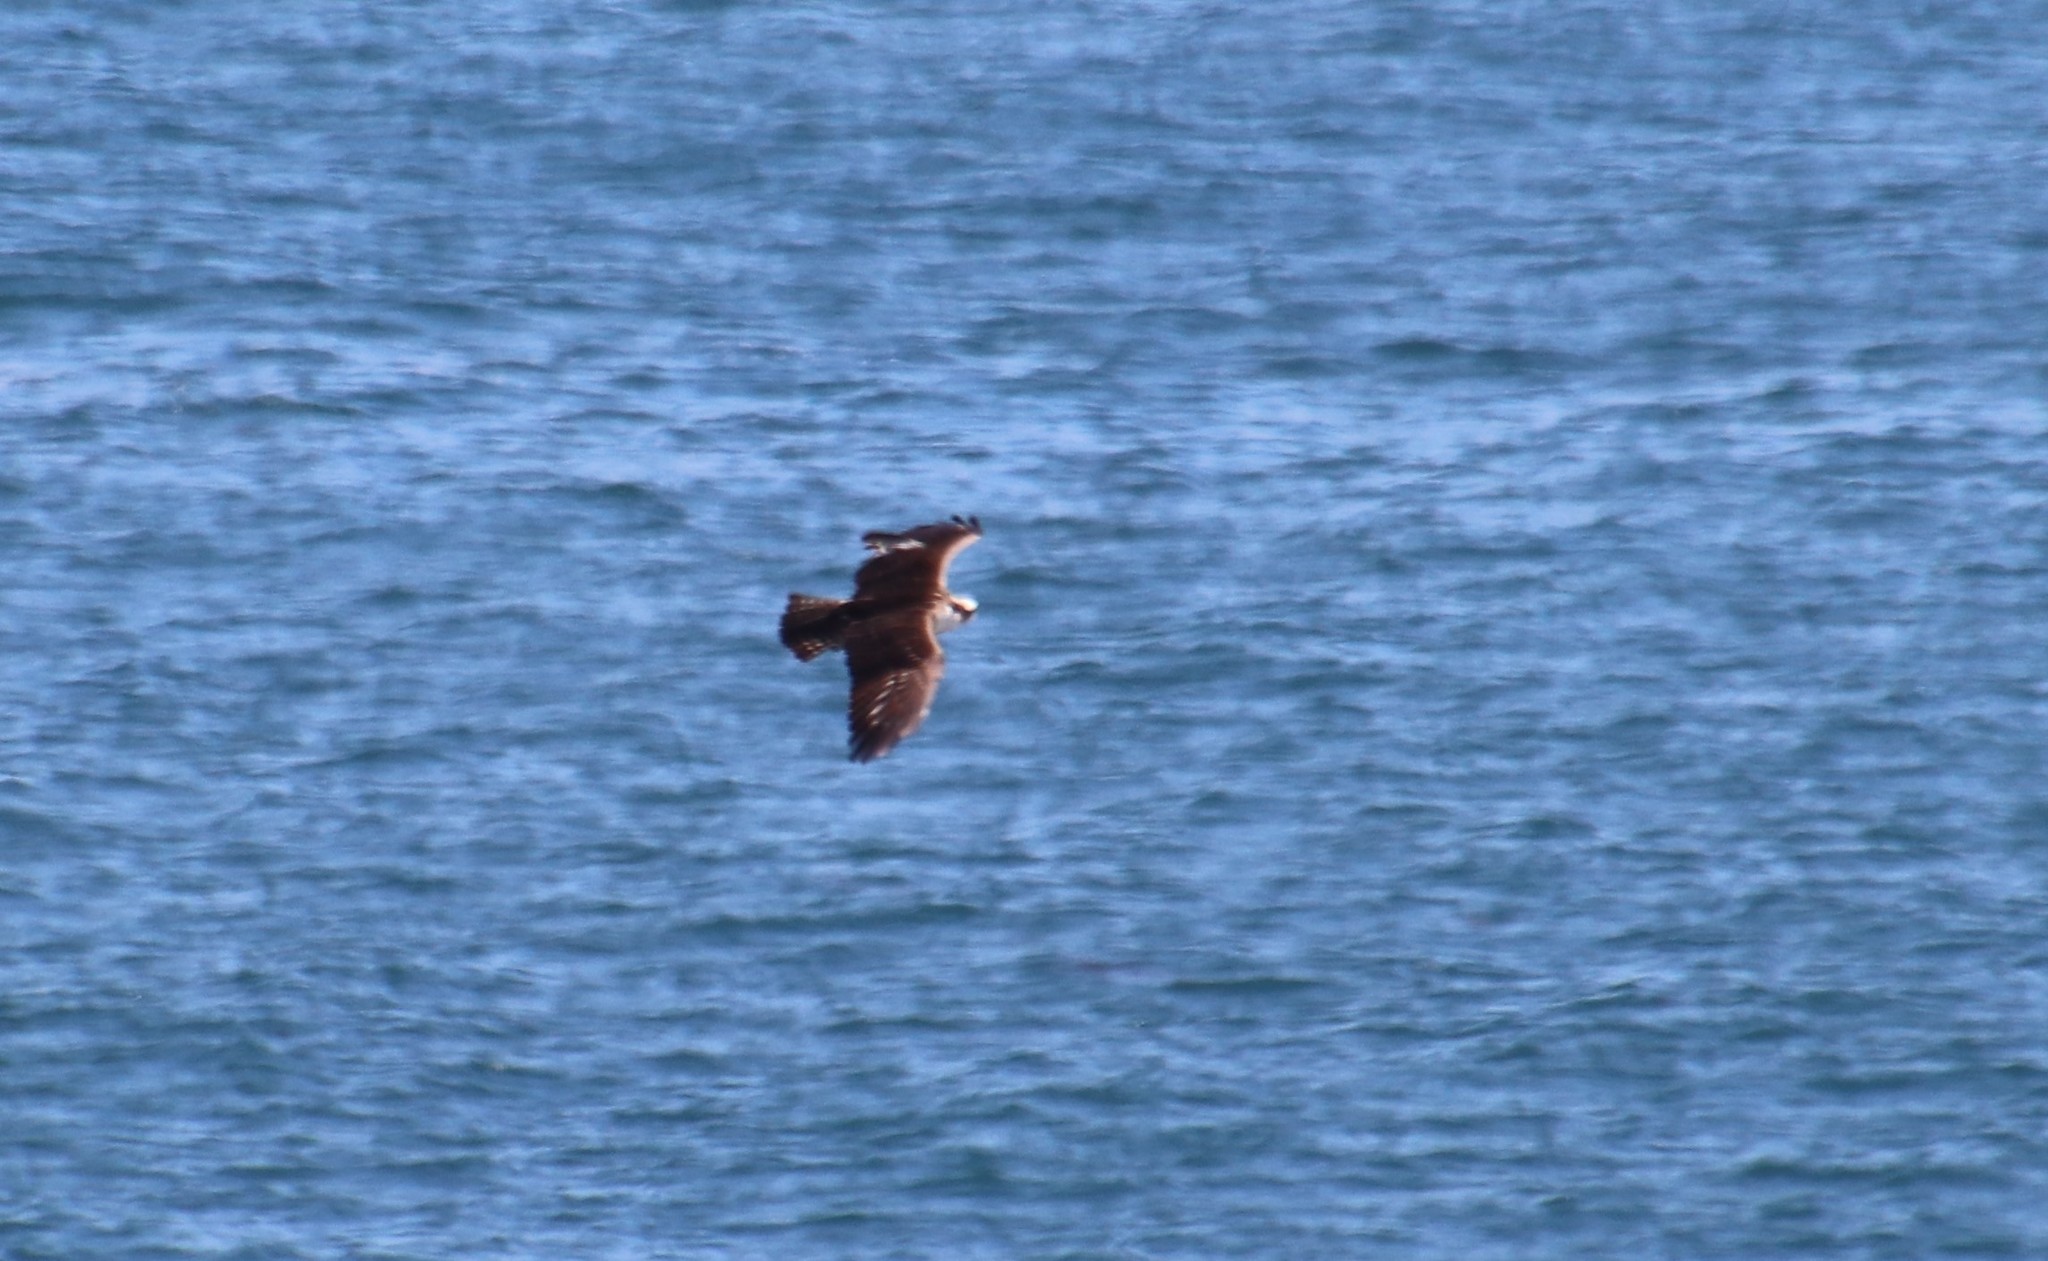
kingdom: Animalia
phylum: Chordata
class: Aves
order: Accipitriformes
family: Pandionidae
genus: Pandion
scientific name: Pandion haliaetus
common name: Osprey
